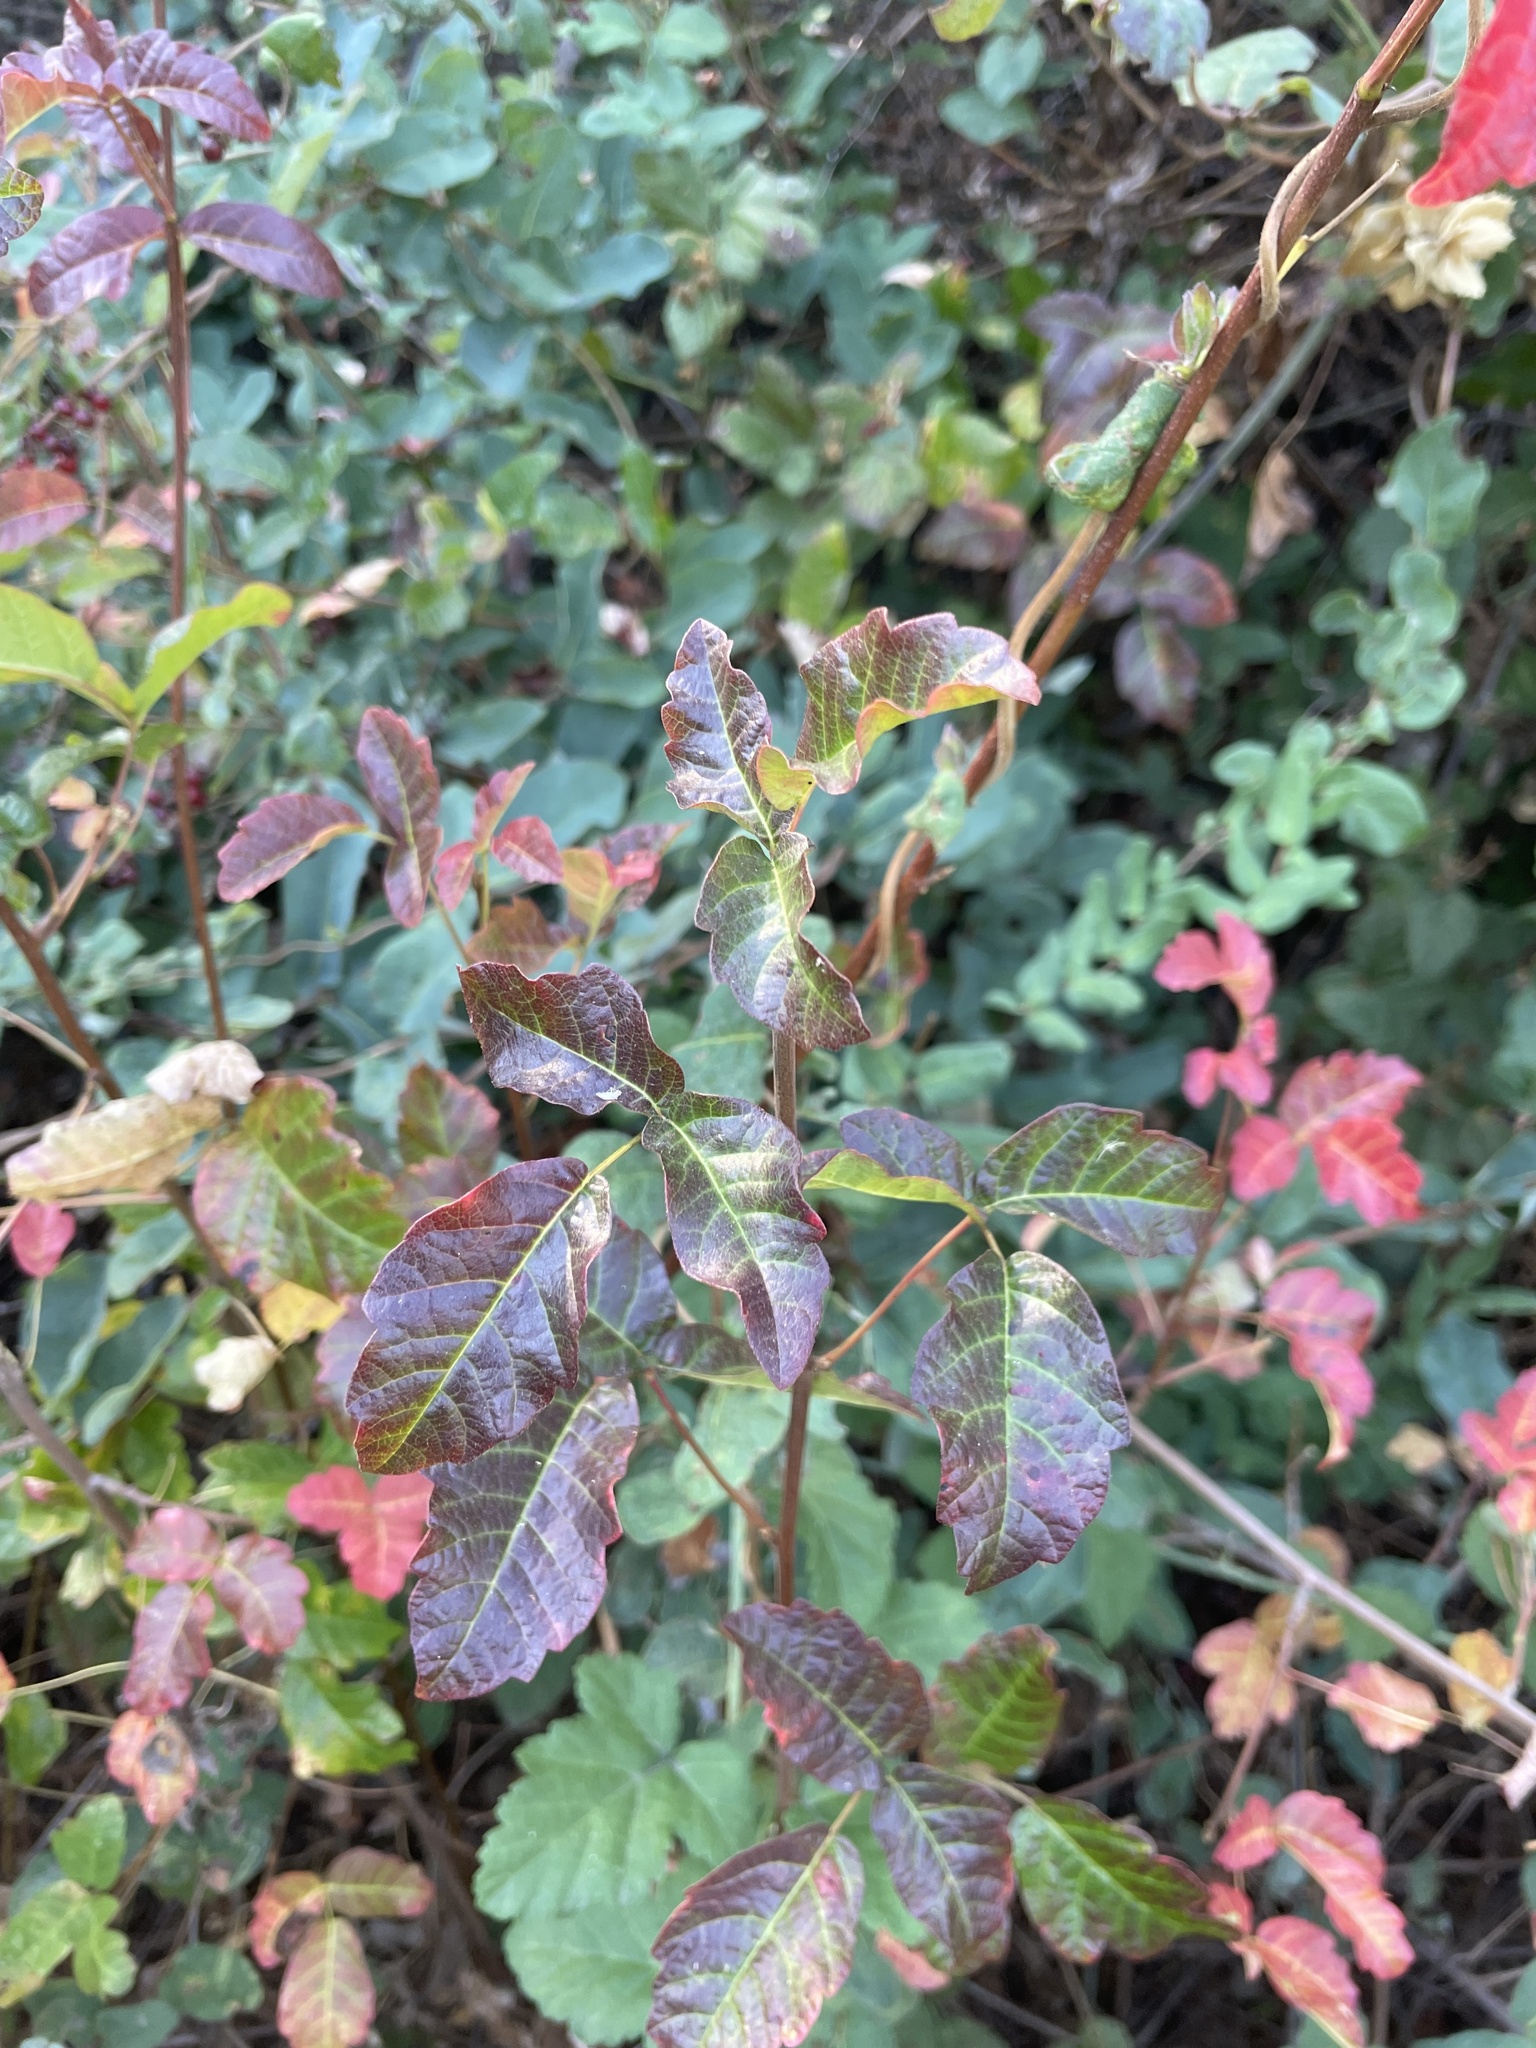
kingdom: Plantae
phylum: Tracheophyta
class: Magnoliopsida
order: Sapindales
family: Anacardiaceae
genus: Toxicodendron
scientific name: Toxicodendron diversilobum
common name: Pacific poison-oak
